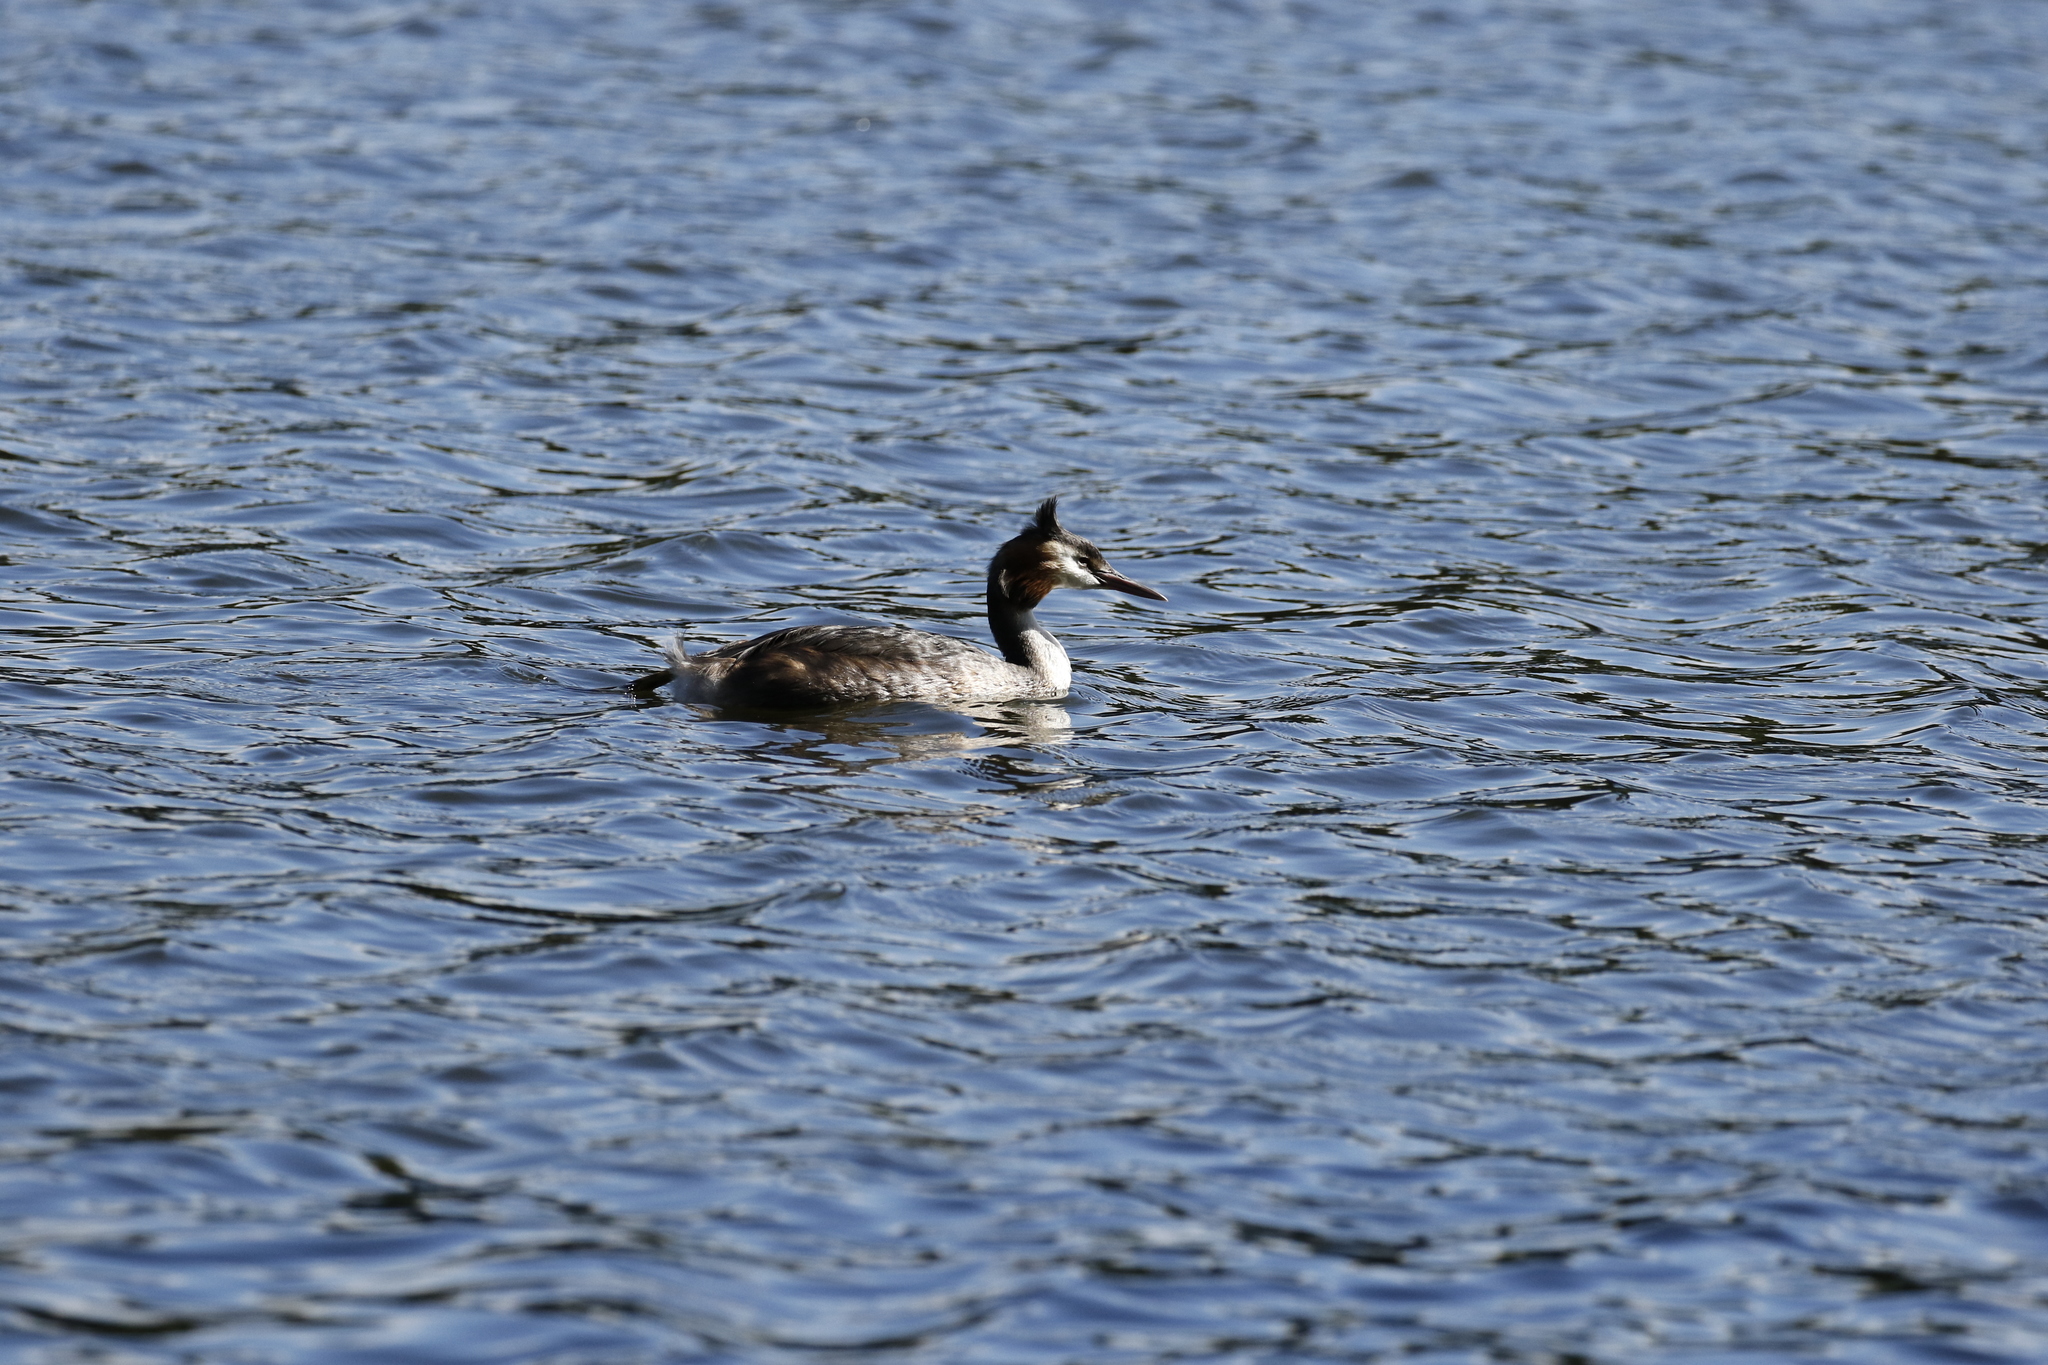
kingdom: Animalia
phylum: Chordata
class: Aves
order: Podicipediformes
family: Podicipedidae
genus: Podiceps
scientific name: Podiceps cristatus
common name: Great crested grebe
